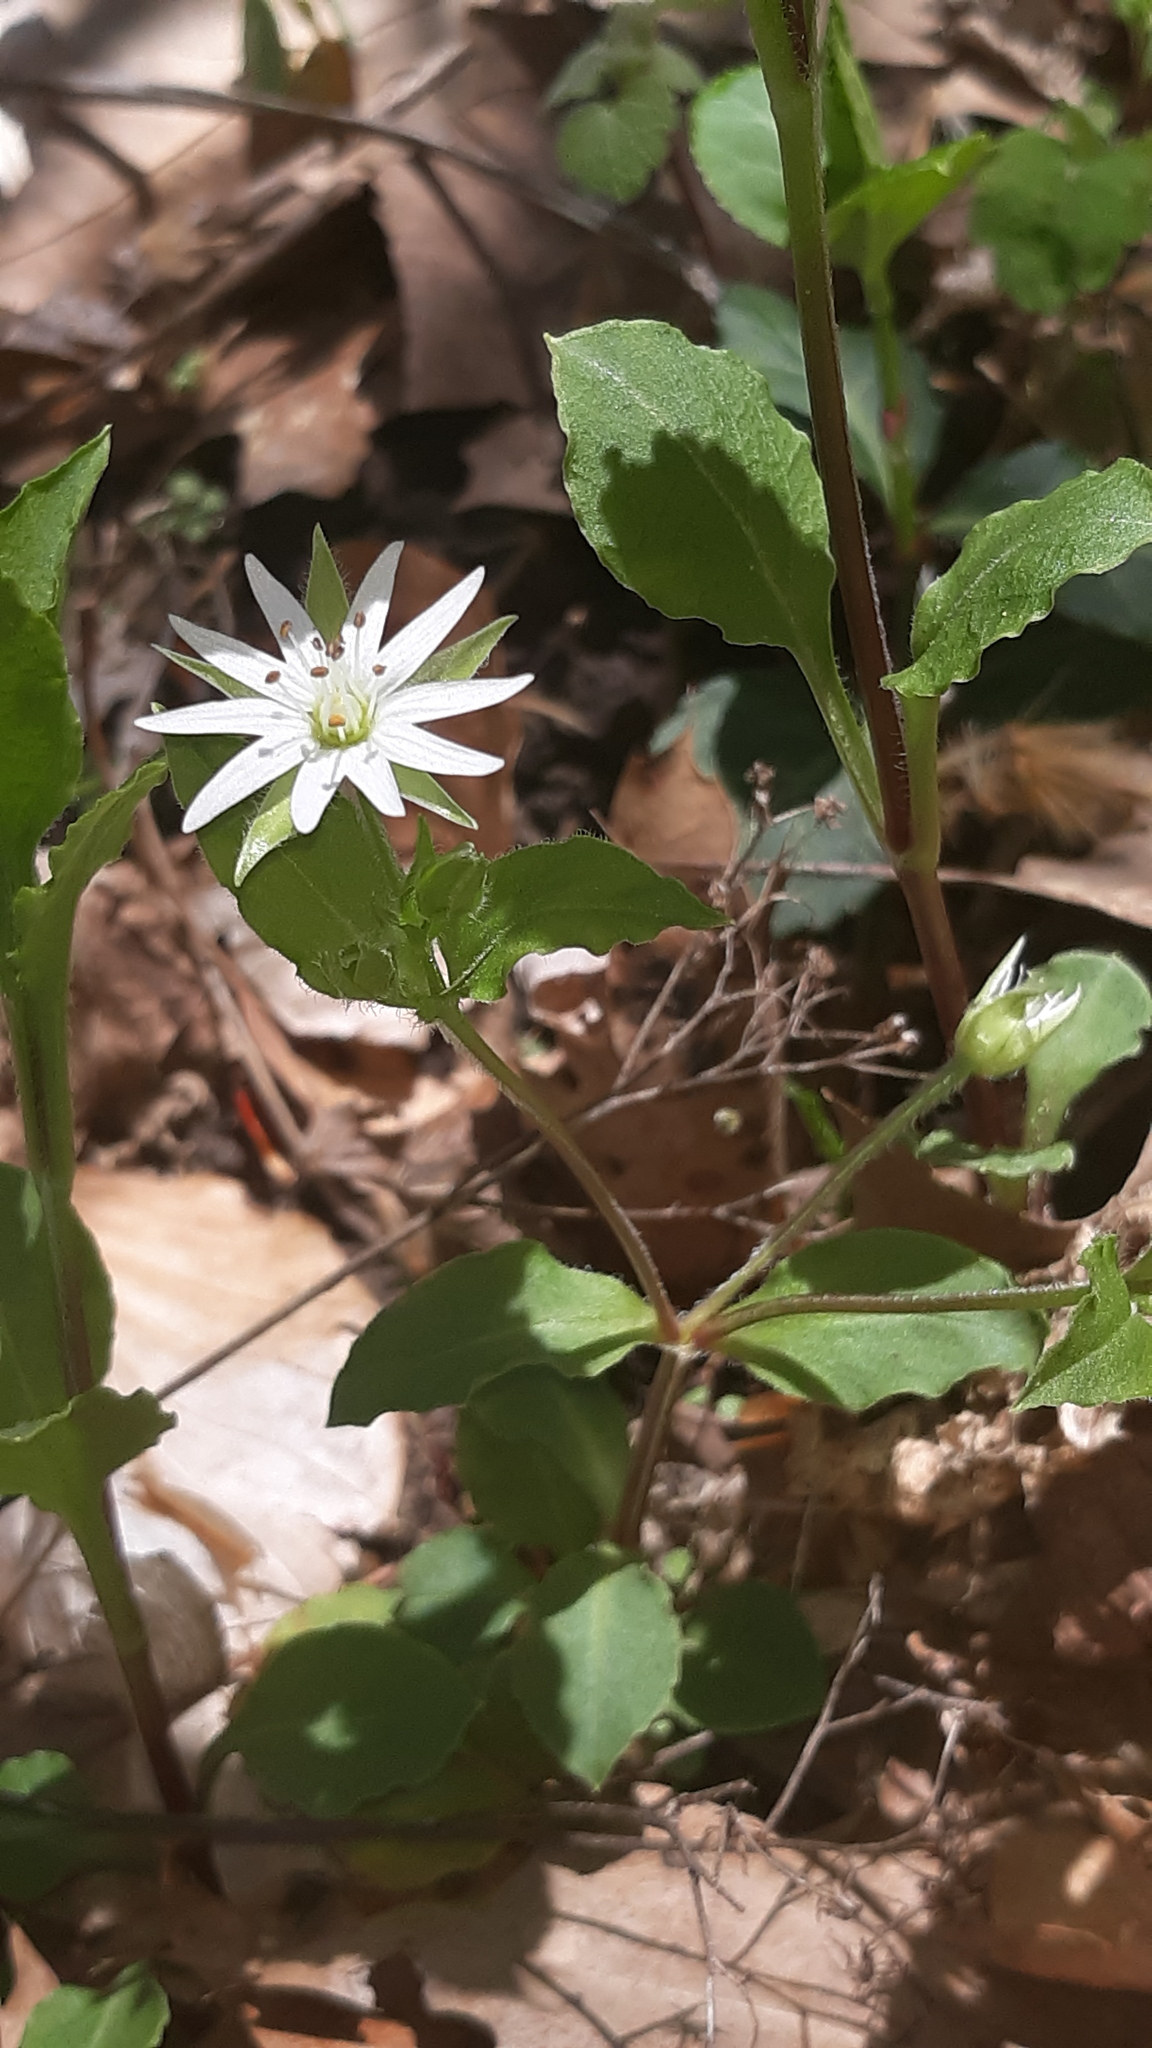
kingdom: Plantae
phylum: Tracheophyta
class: Magnoliopsida
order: Caryophyllales
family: Caryophyllaceae
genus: Stellaria
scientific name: Stellaria corei
